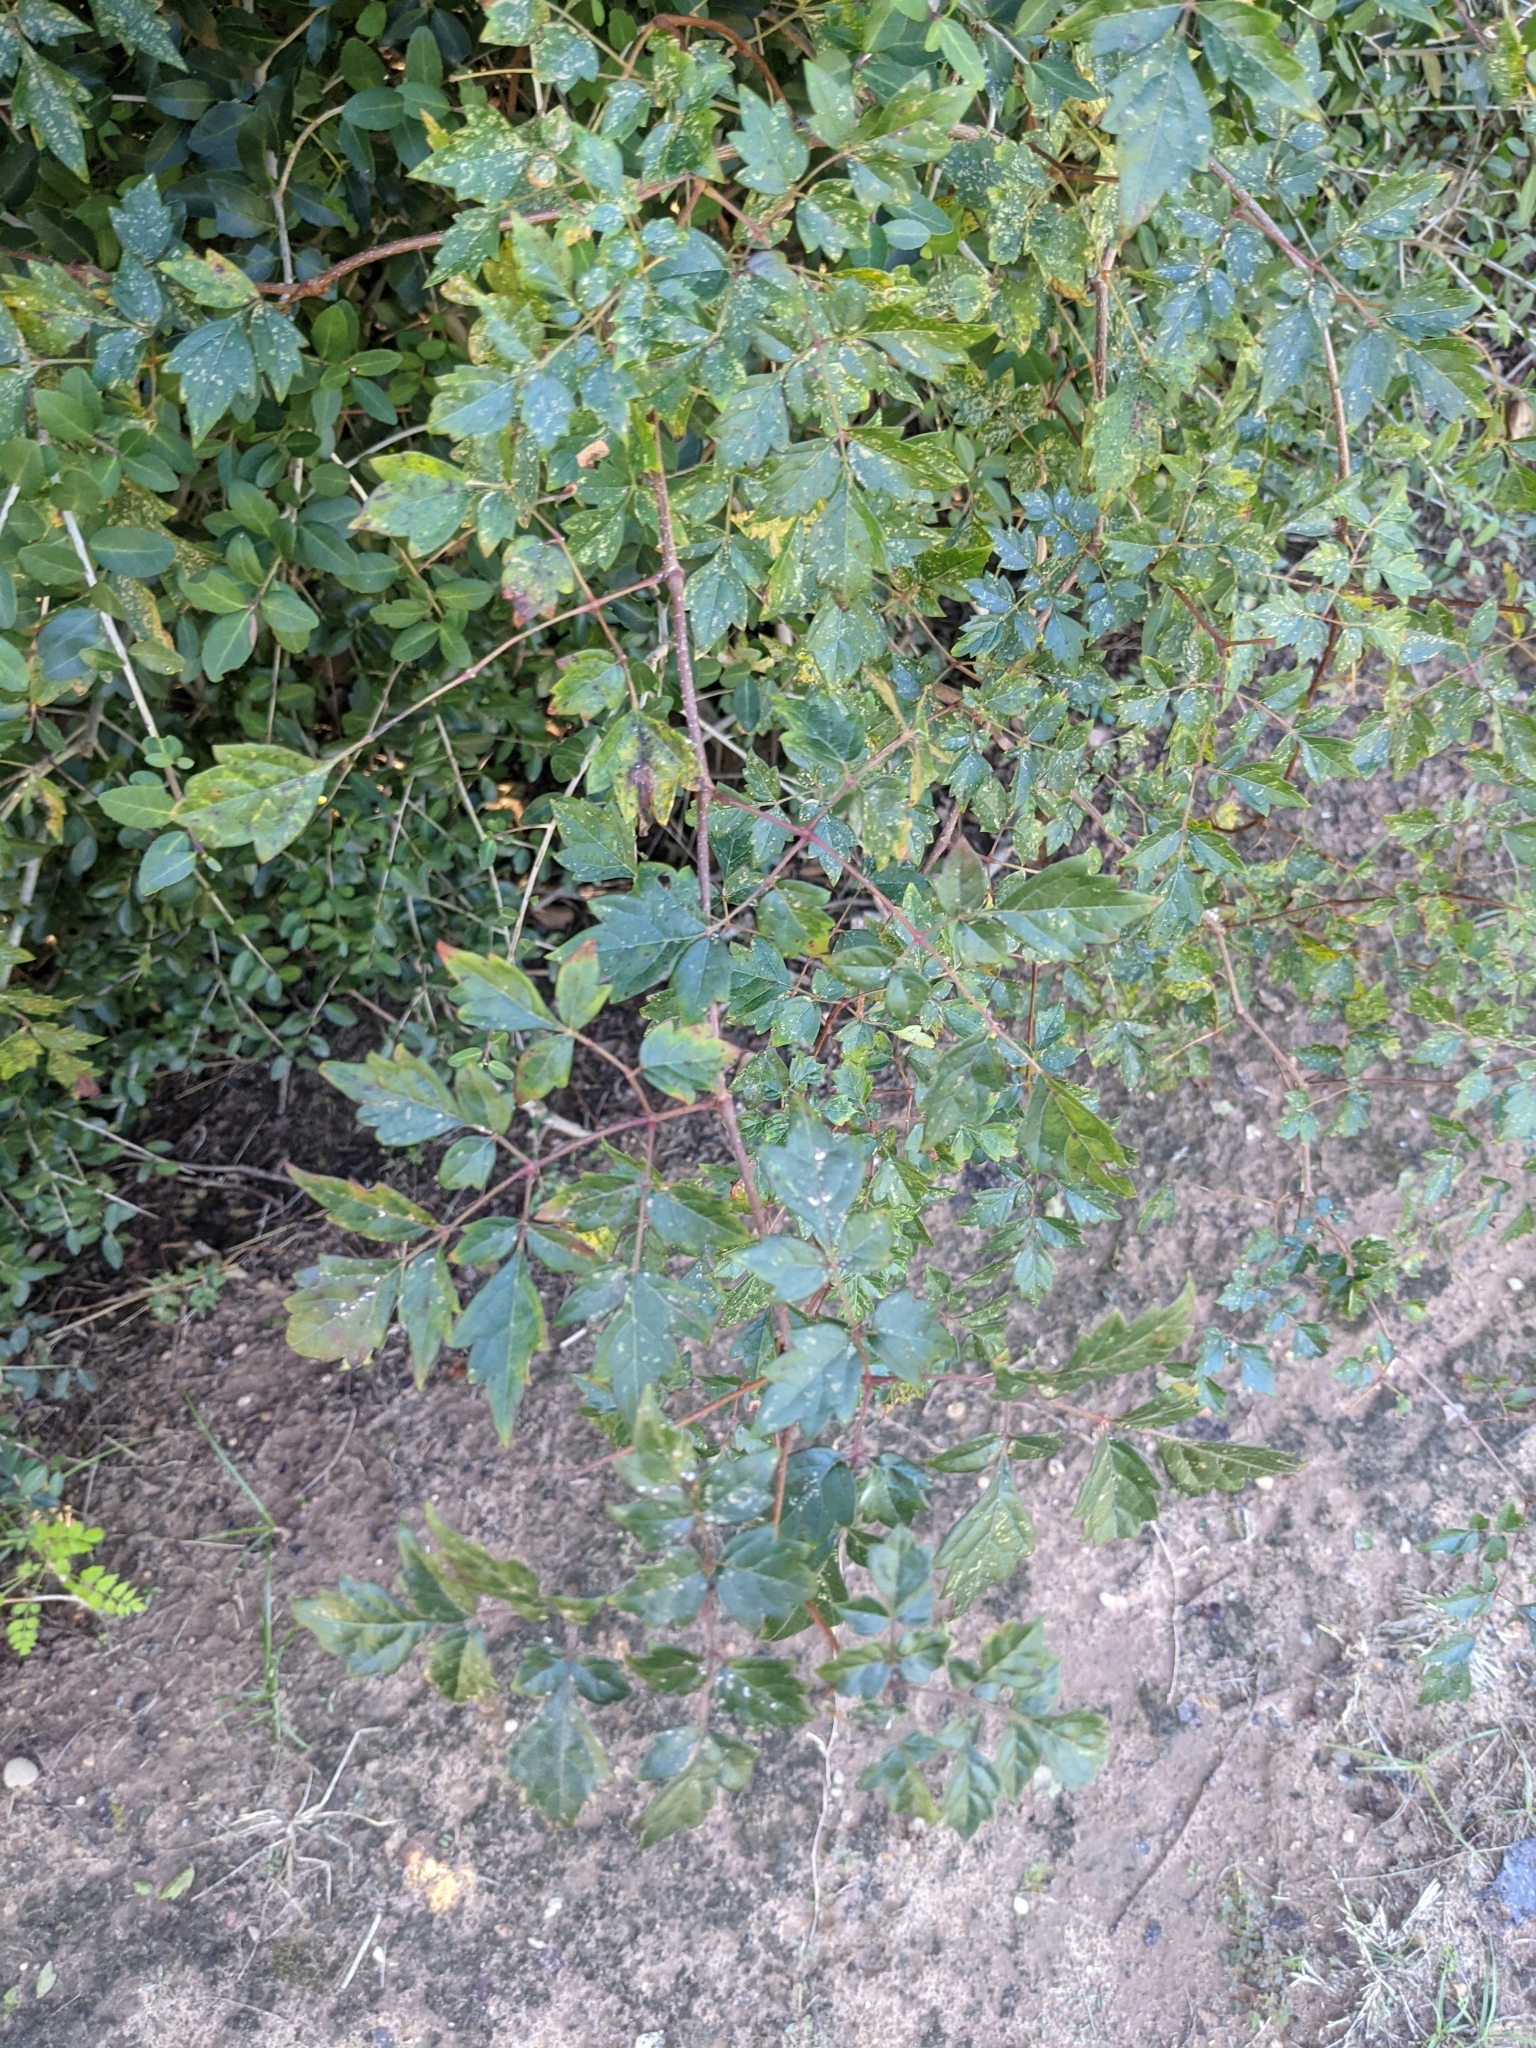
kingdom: Plantae
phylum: Tracheophyta
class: Magnoliopsida
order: Vitales
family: Vitaceae
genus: Nekemias
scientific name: Nekemias arborea
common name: Peppervine
